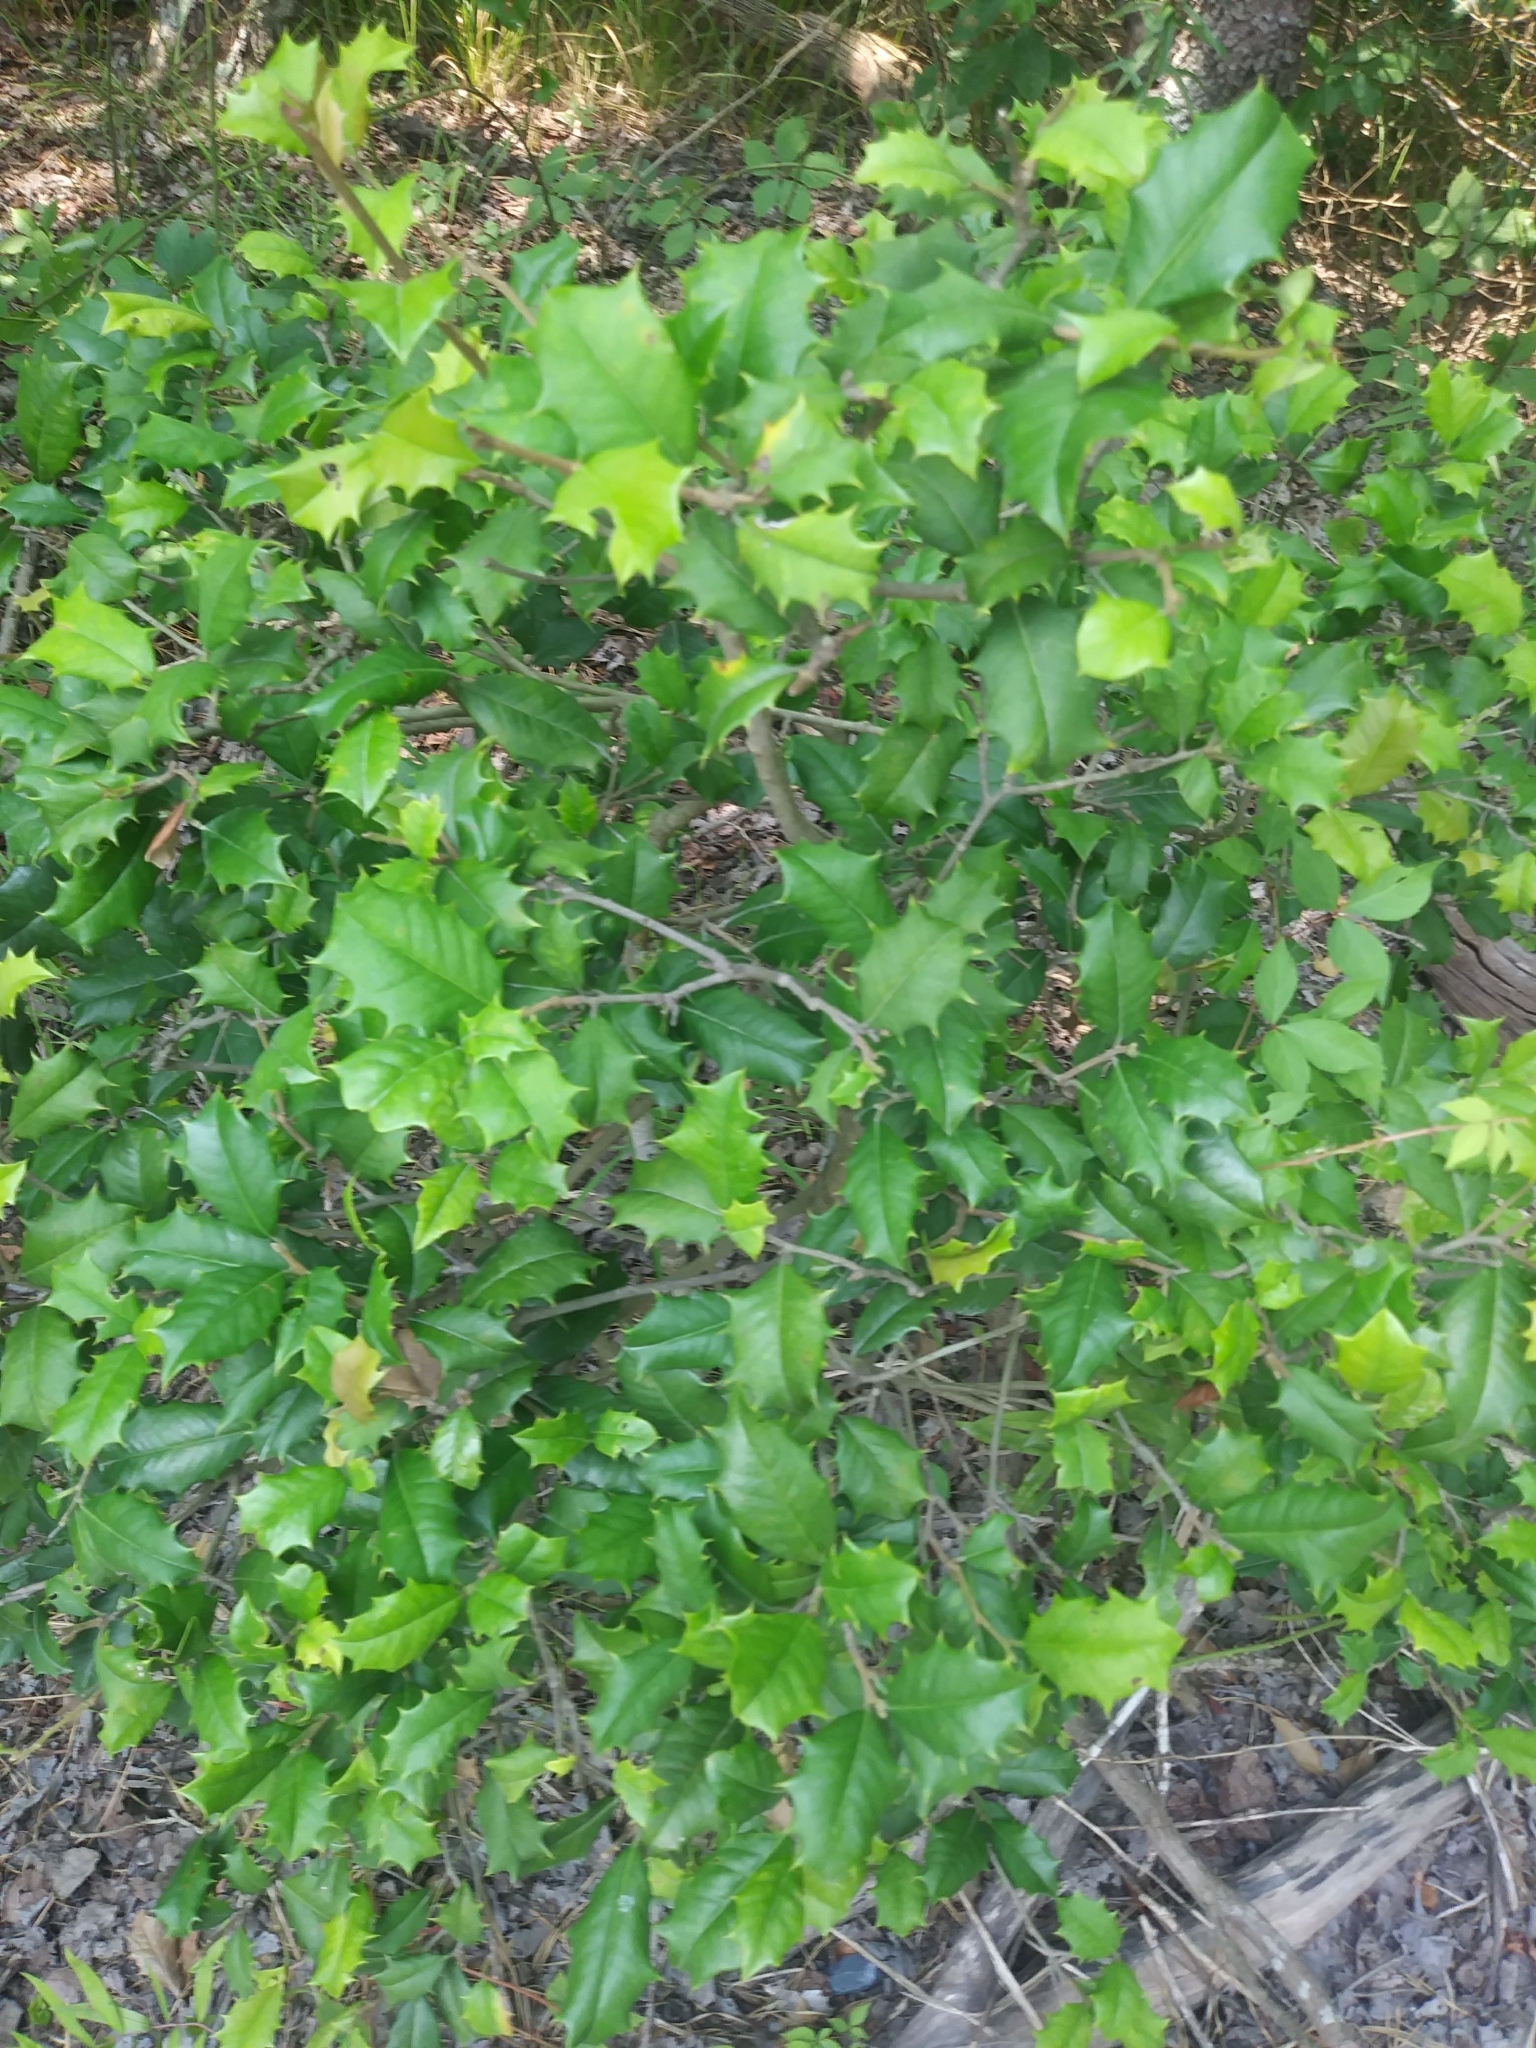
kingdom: Plantae
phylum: Tracheophyta
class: Magnoliopsida
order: Aquifoliales
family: Aquifoliaceae
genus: Ilex
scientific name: Ilex opaca
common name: American holly
